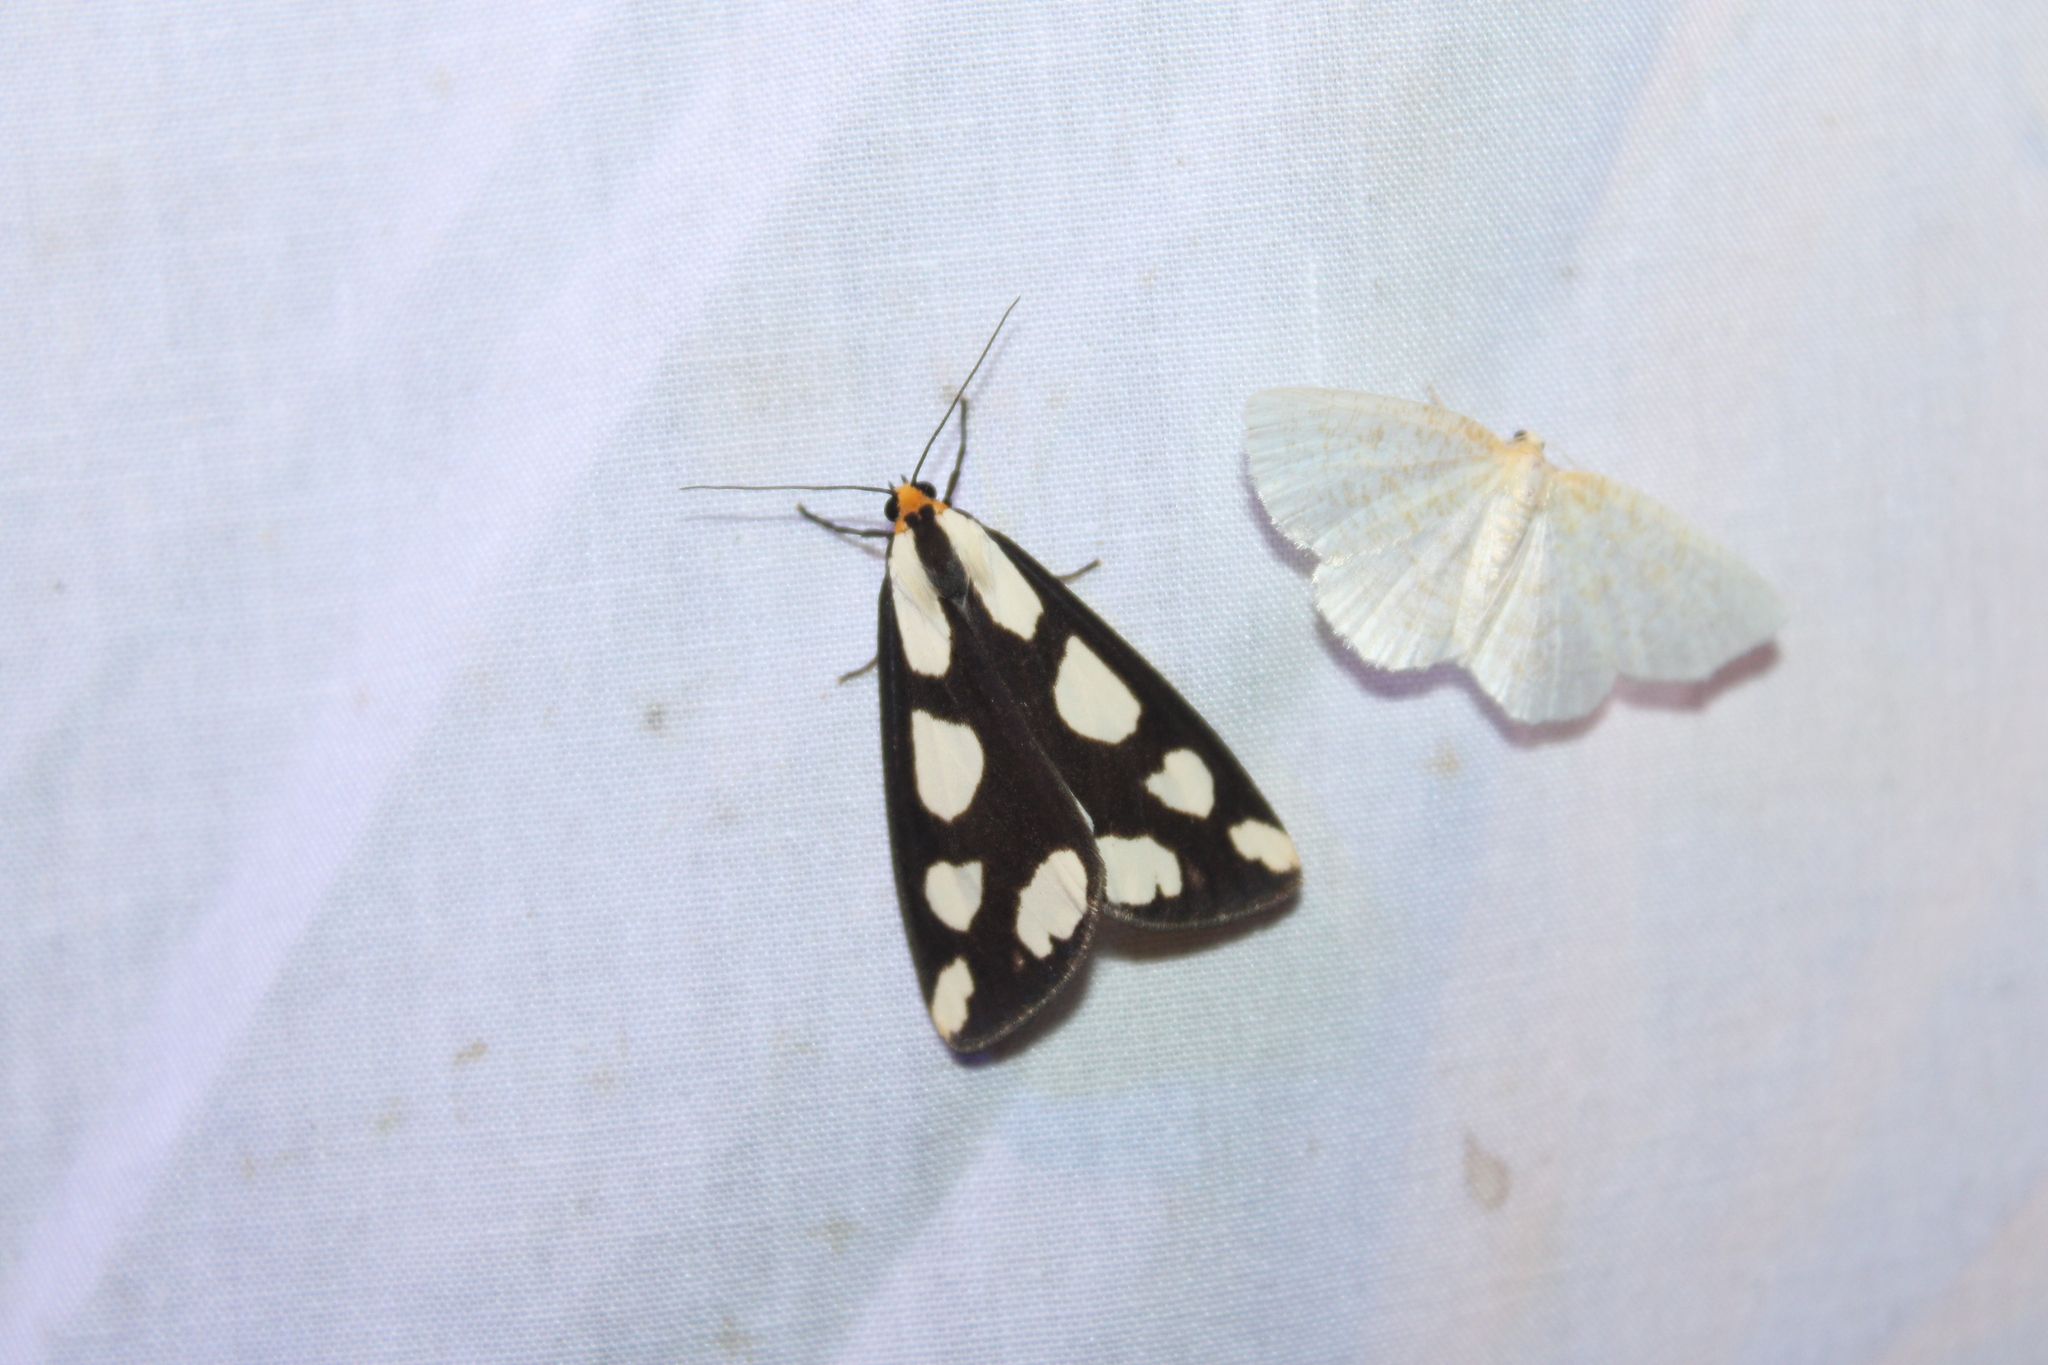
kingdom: Animalia
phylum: Arthropoda
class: Insecta
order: Lepidoptera
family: Erebidae
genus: Haploa
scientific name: Haploa lecontei
